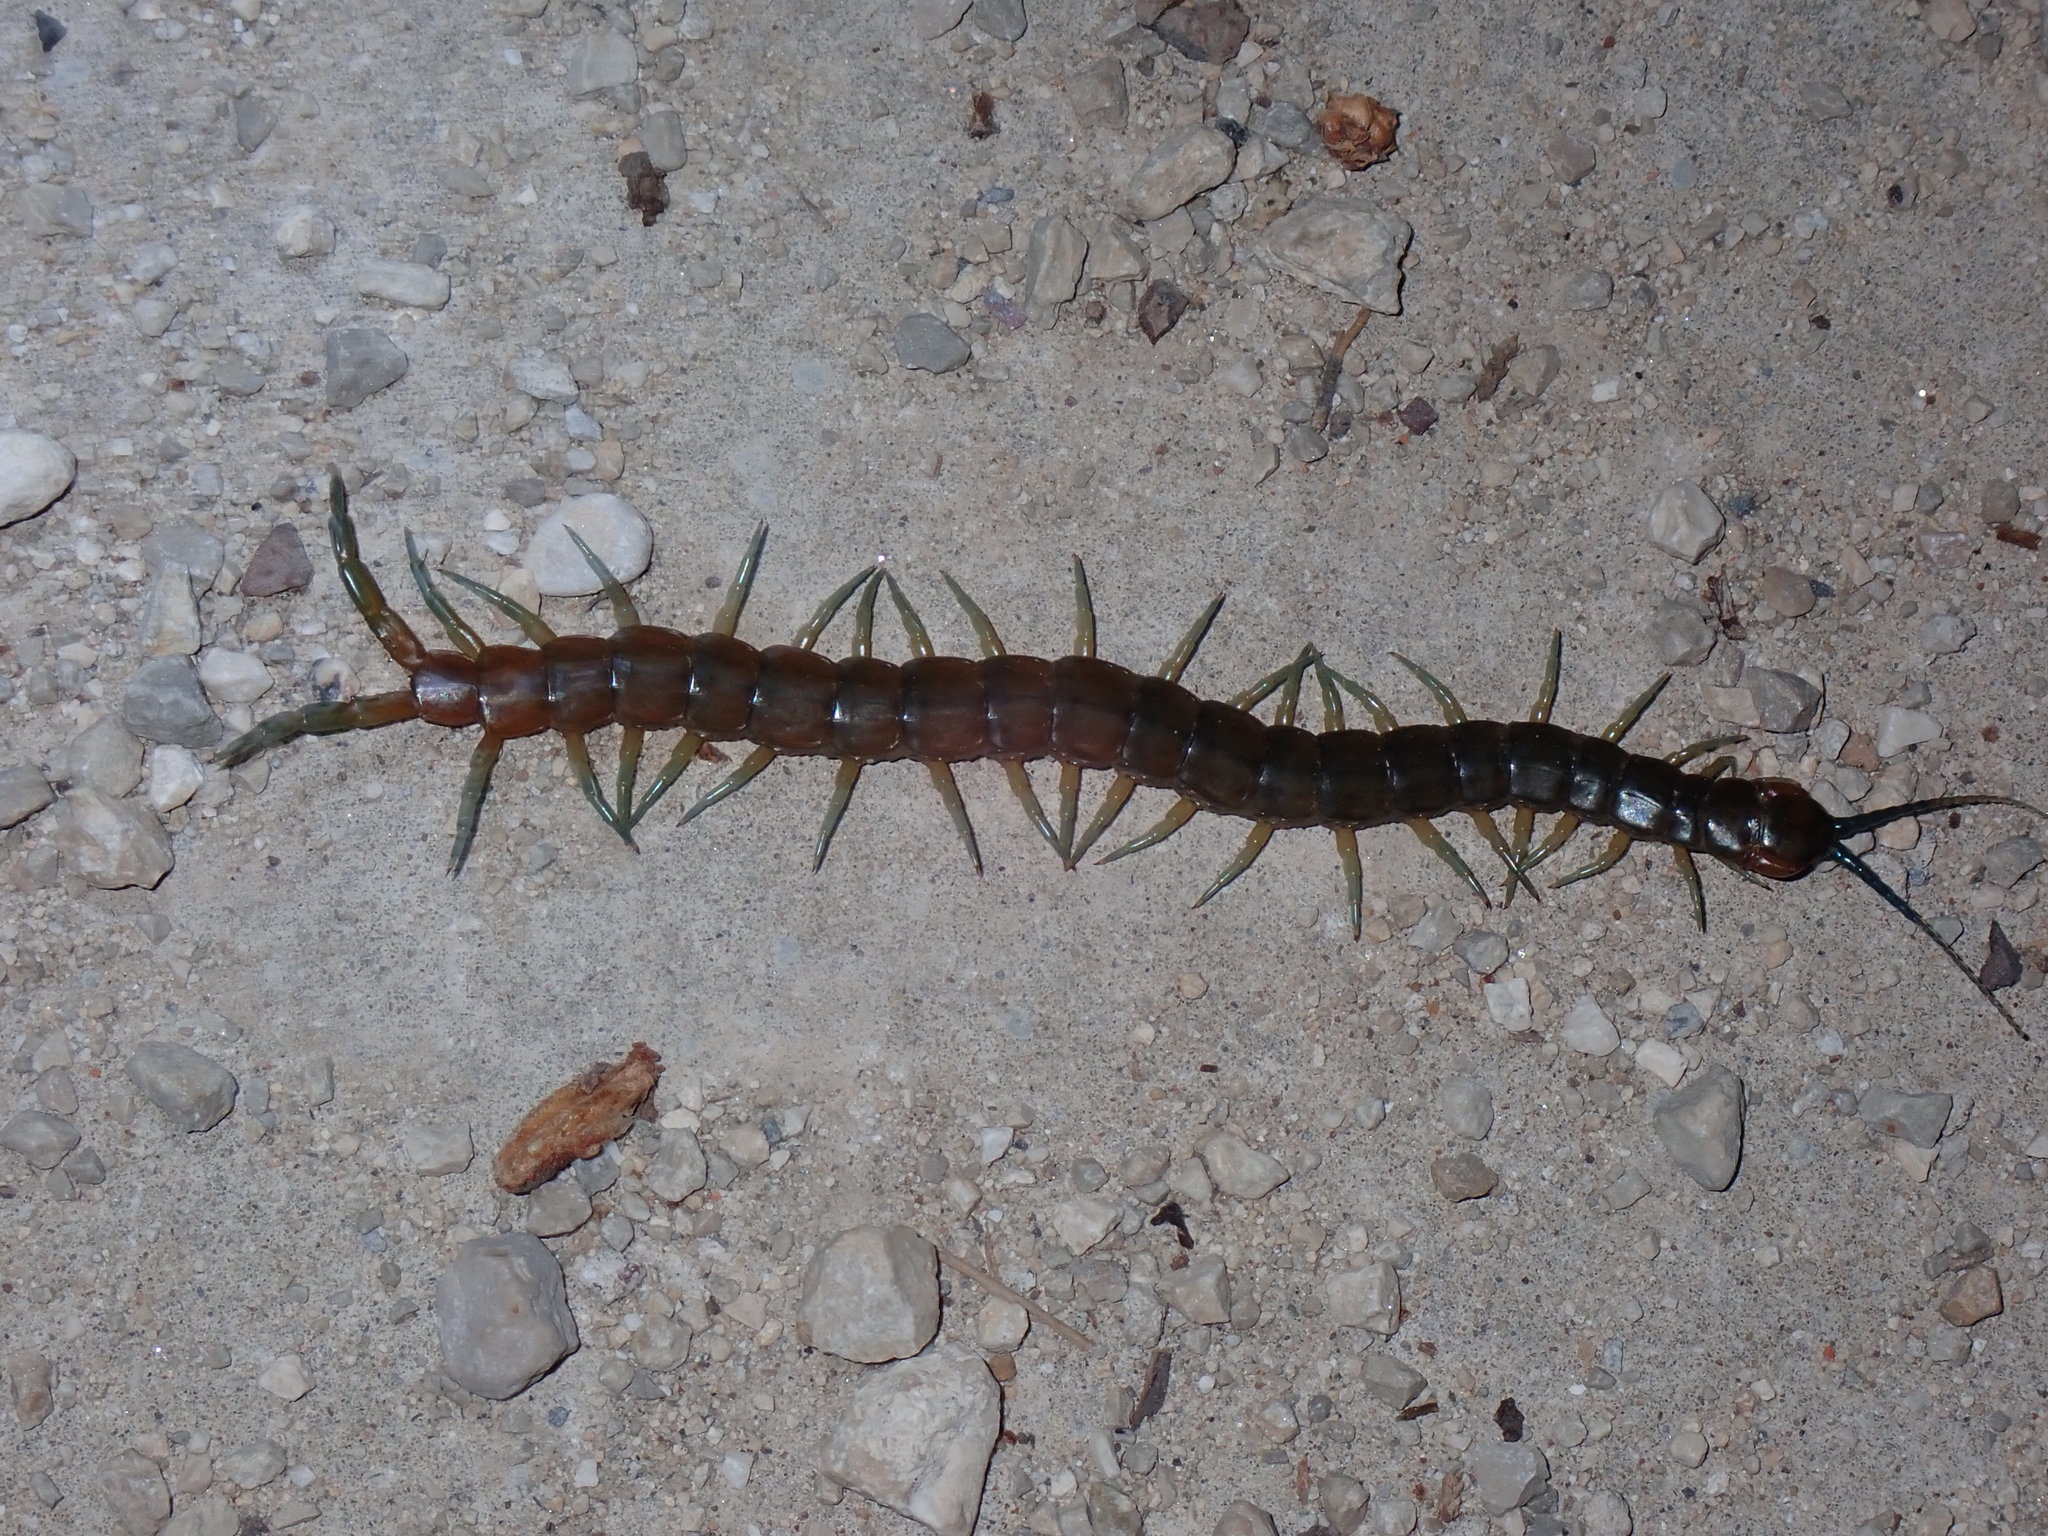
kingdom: Animalia
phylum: Arthropoda
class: Chilopoda
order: Scolopendromorpha
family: Scolopendridae
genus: Scolopendra
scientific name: Scolopendra dalmatica
